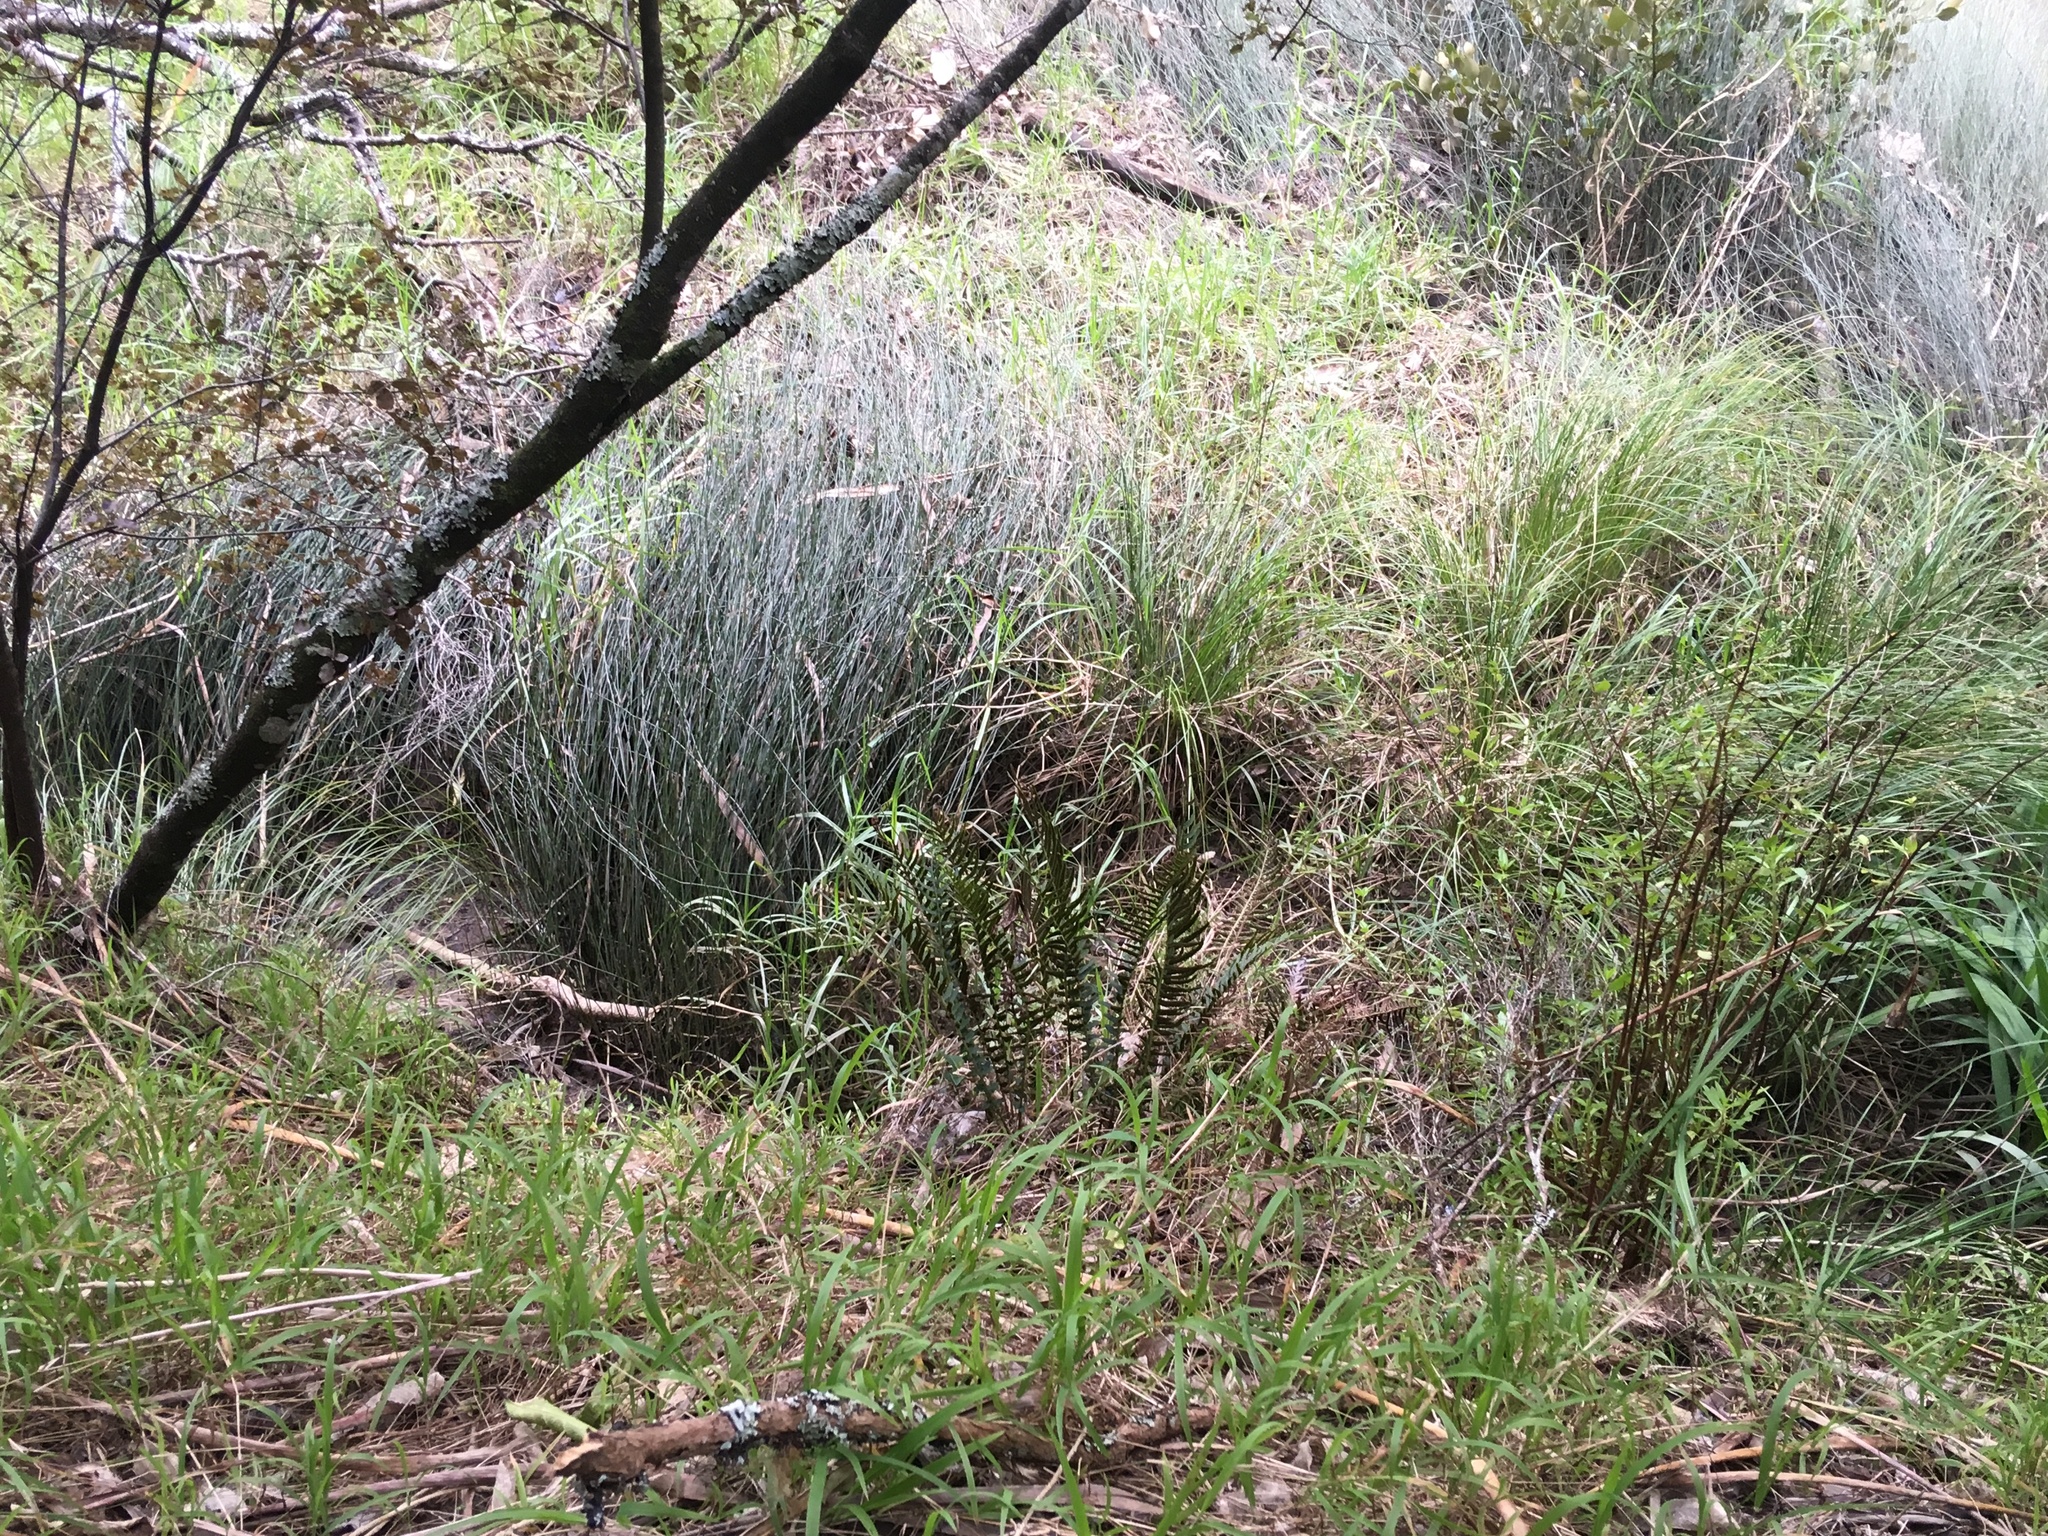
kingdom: Plantae
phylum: Tracheophyta
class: Liliopsida
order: Poales
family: Poaceae
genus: Ehrharta
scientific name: Ehrharta erecta
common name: Panic veldtgrass
